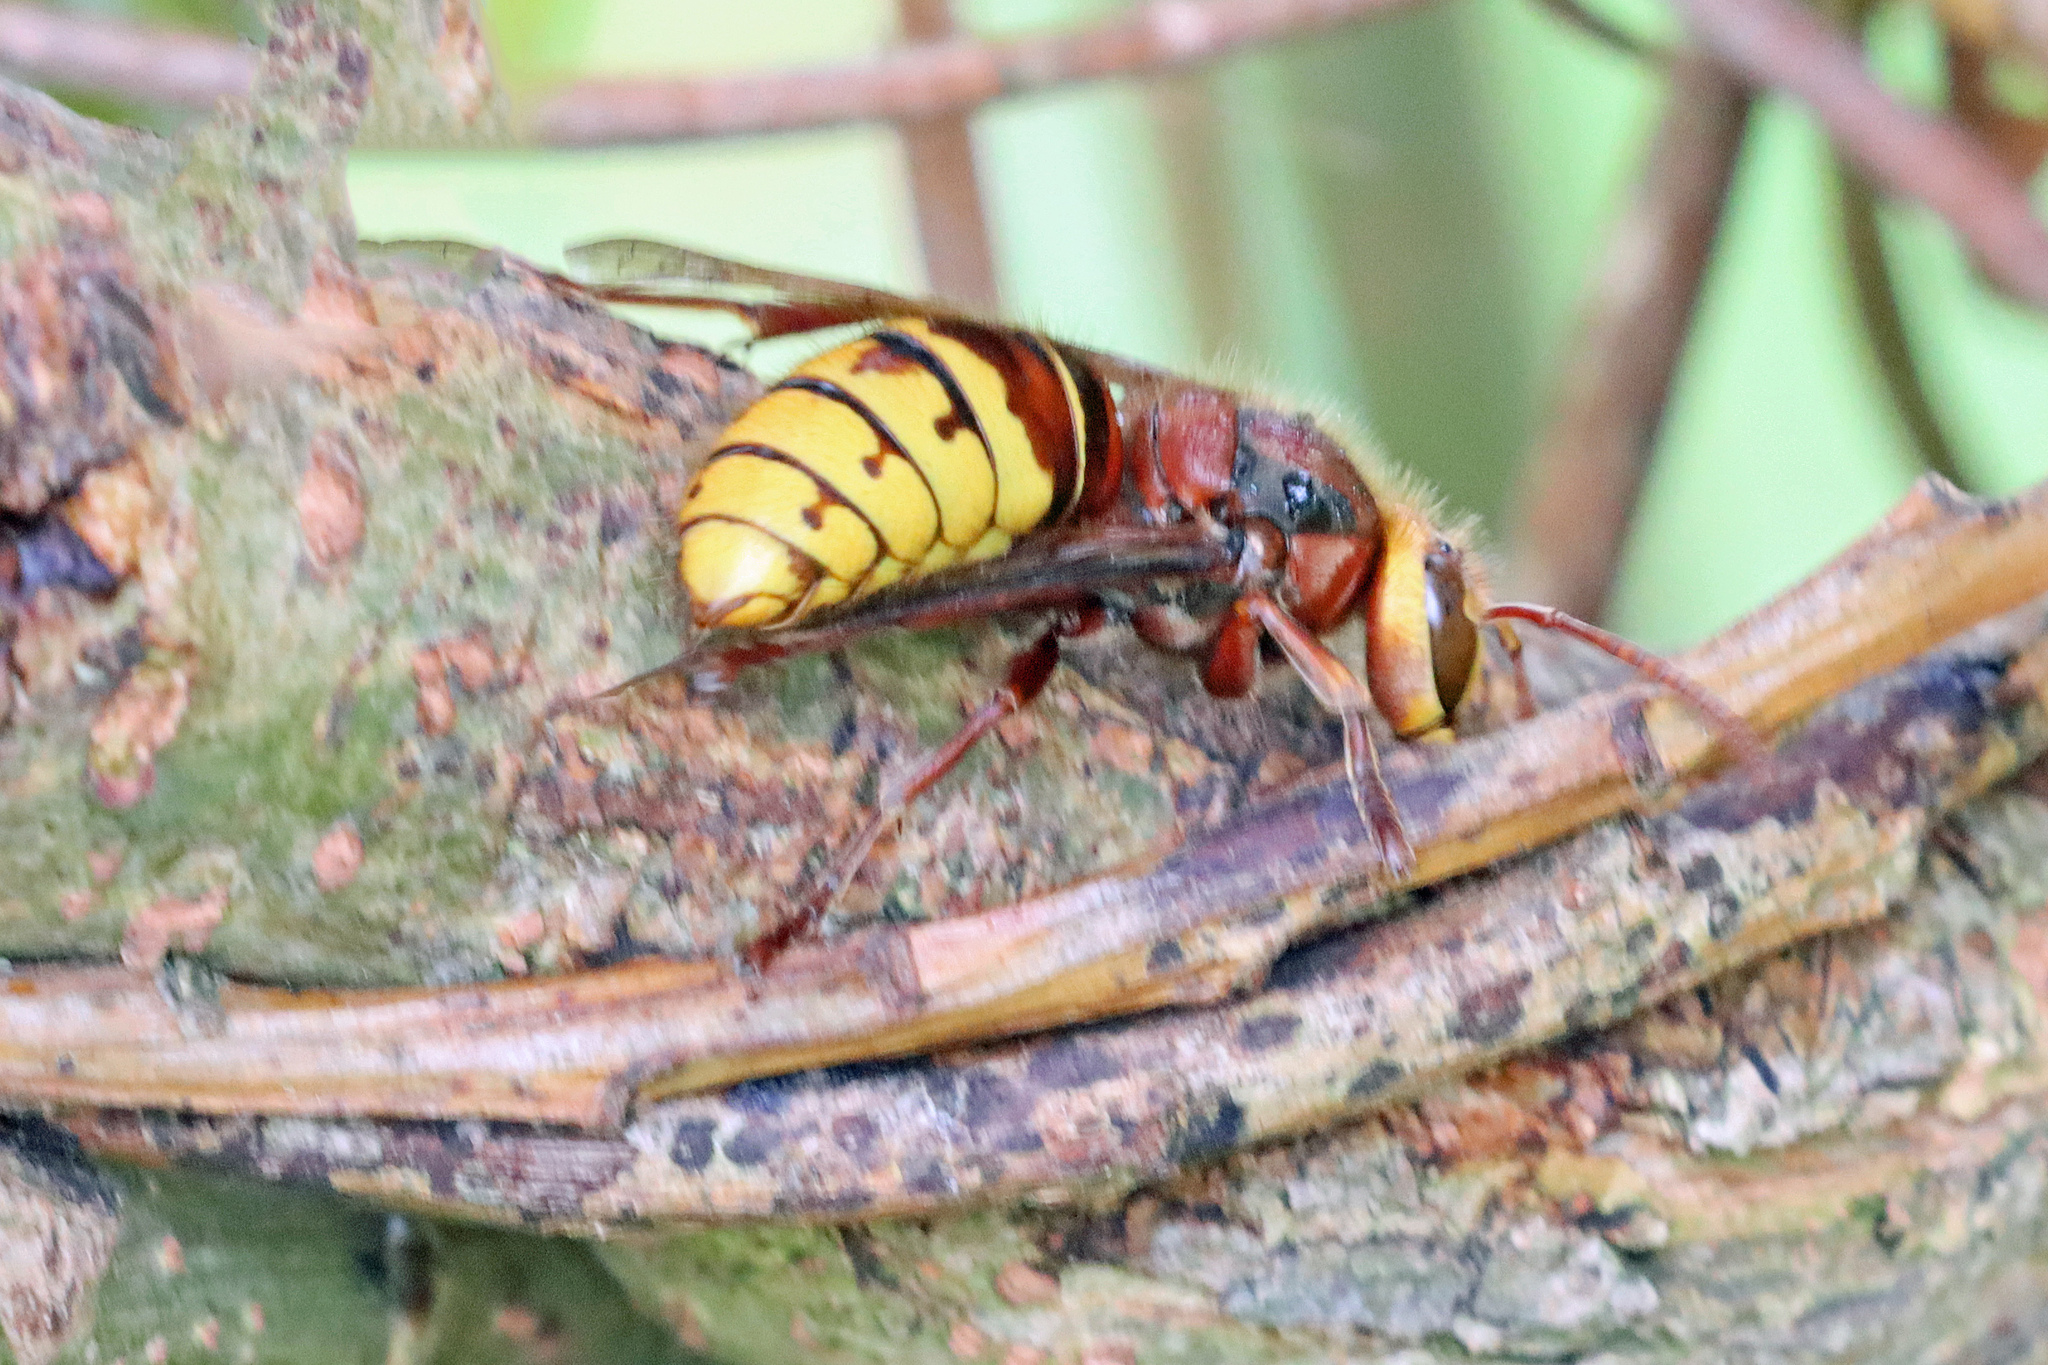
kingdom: Animalia
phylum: Arthropoda
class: Insecta
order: Hymenoptera
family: Vespidae
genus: Vespa
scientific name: Vespa crabro
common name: Hornet
